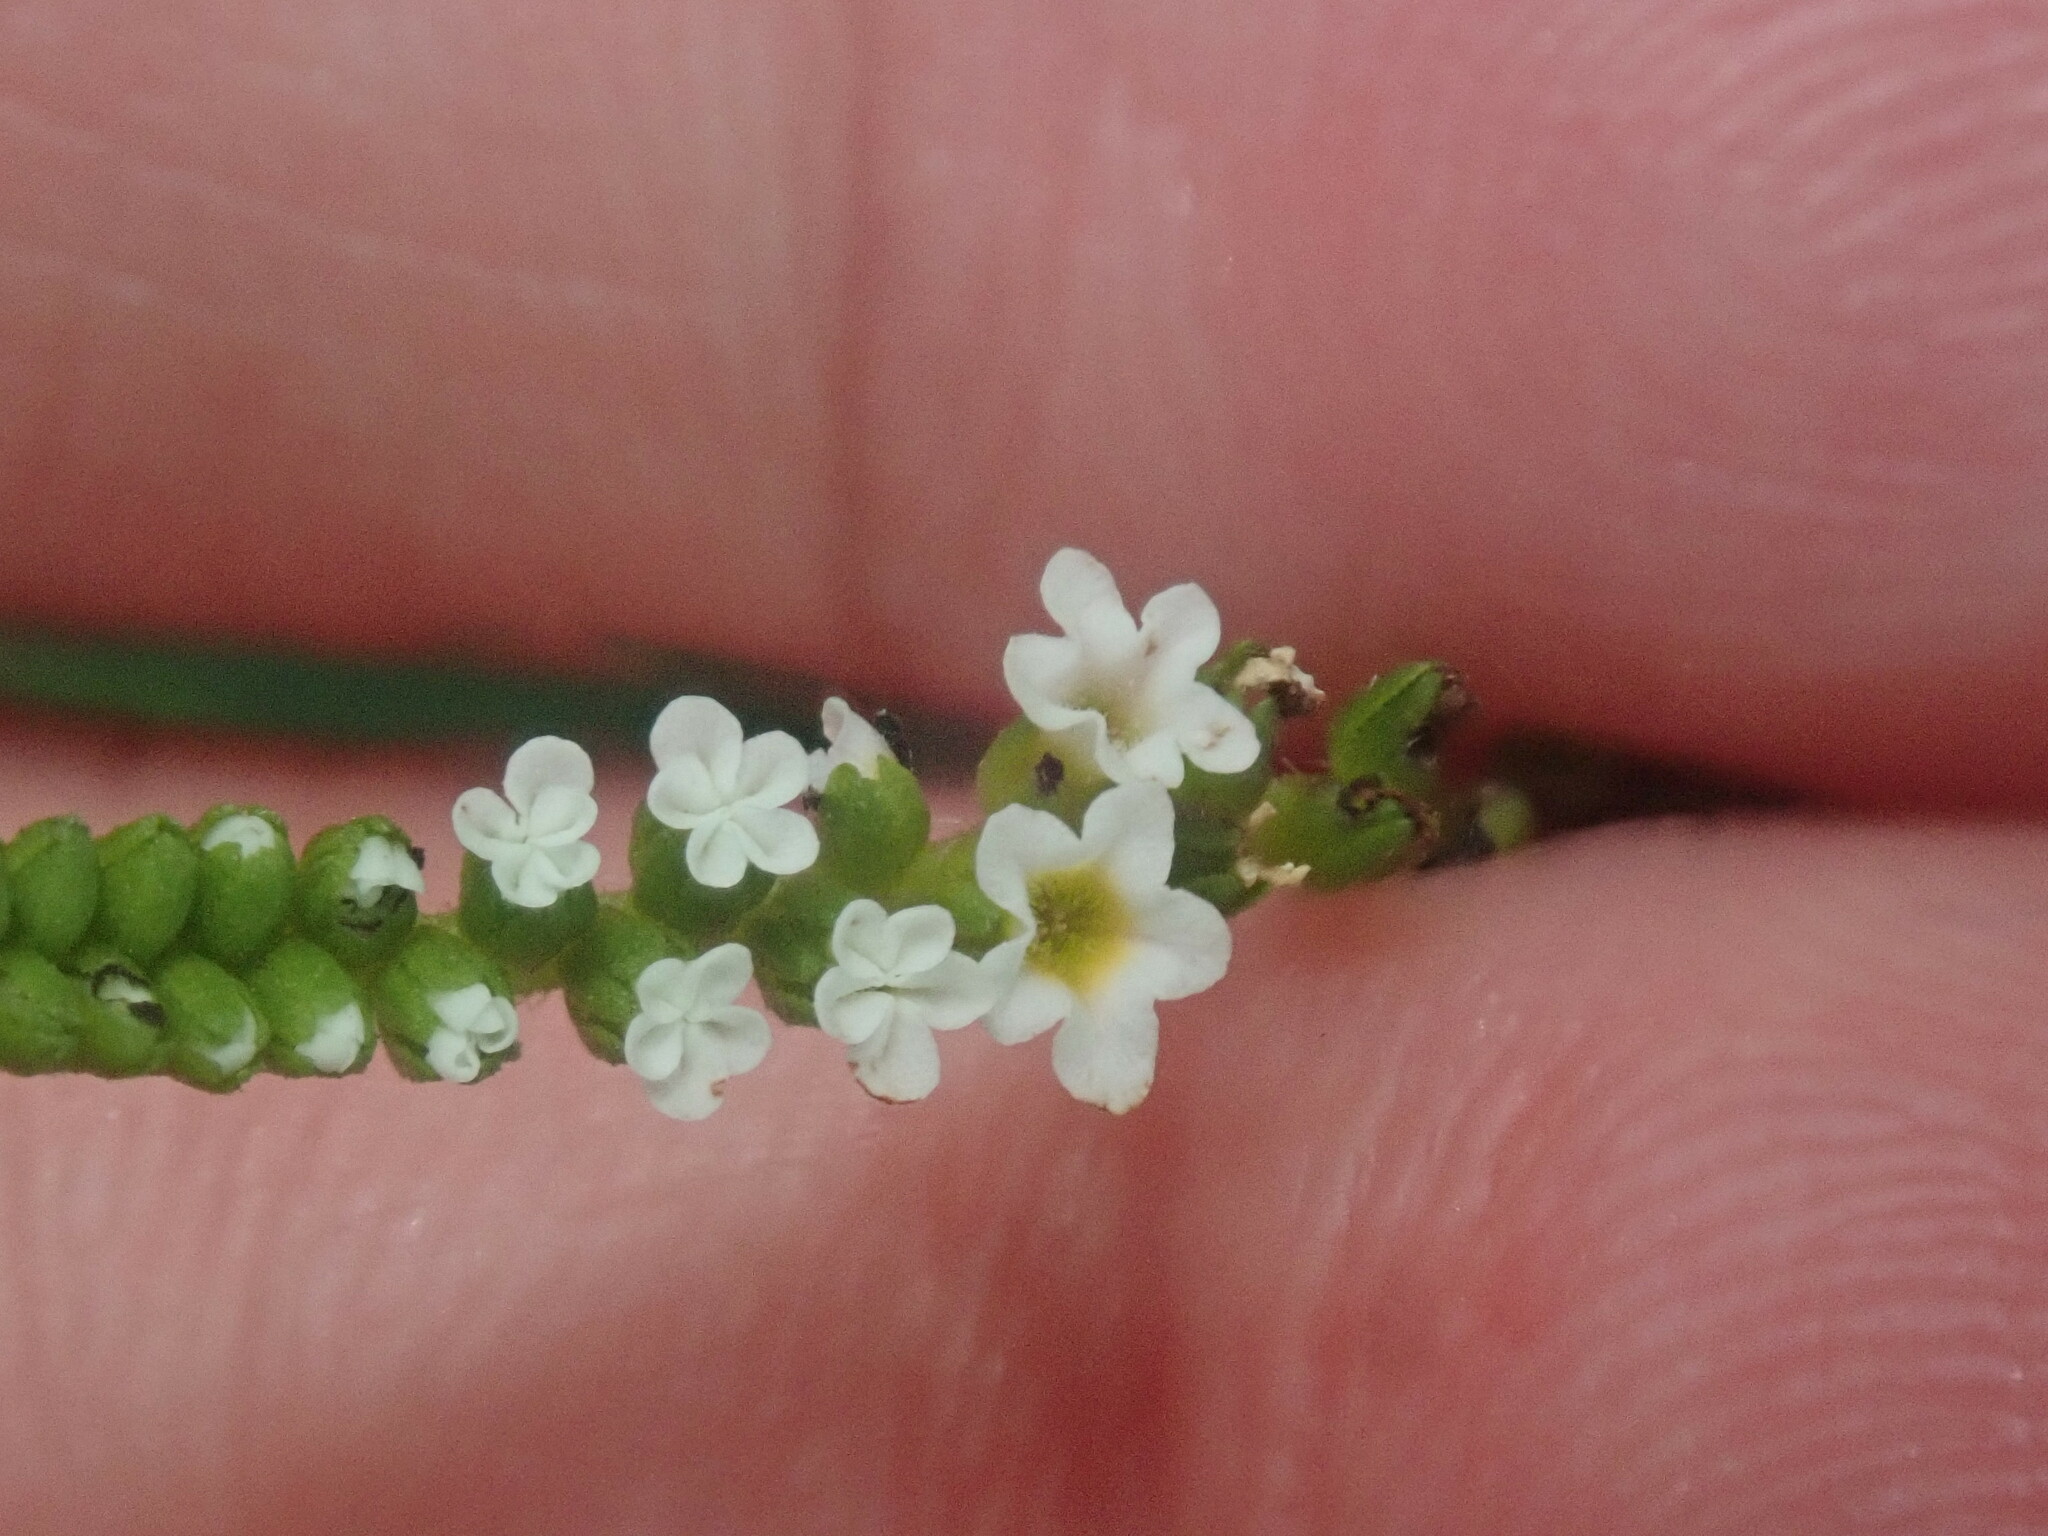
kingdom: Plantae
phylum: Tracheophyta
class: Magnoliopsida
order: Boraginales
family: Heliotropiaceae
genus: Heliotropium
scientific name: Heliotropium angiospermum
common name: Eye bright
